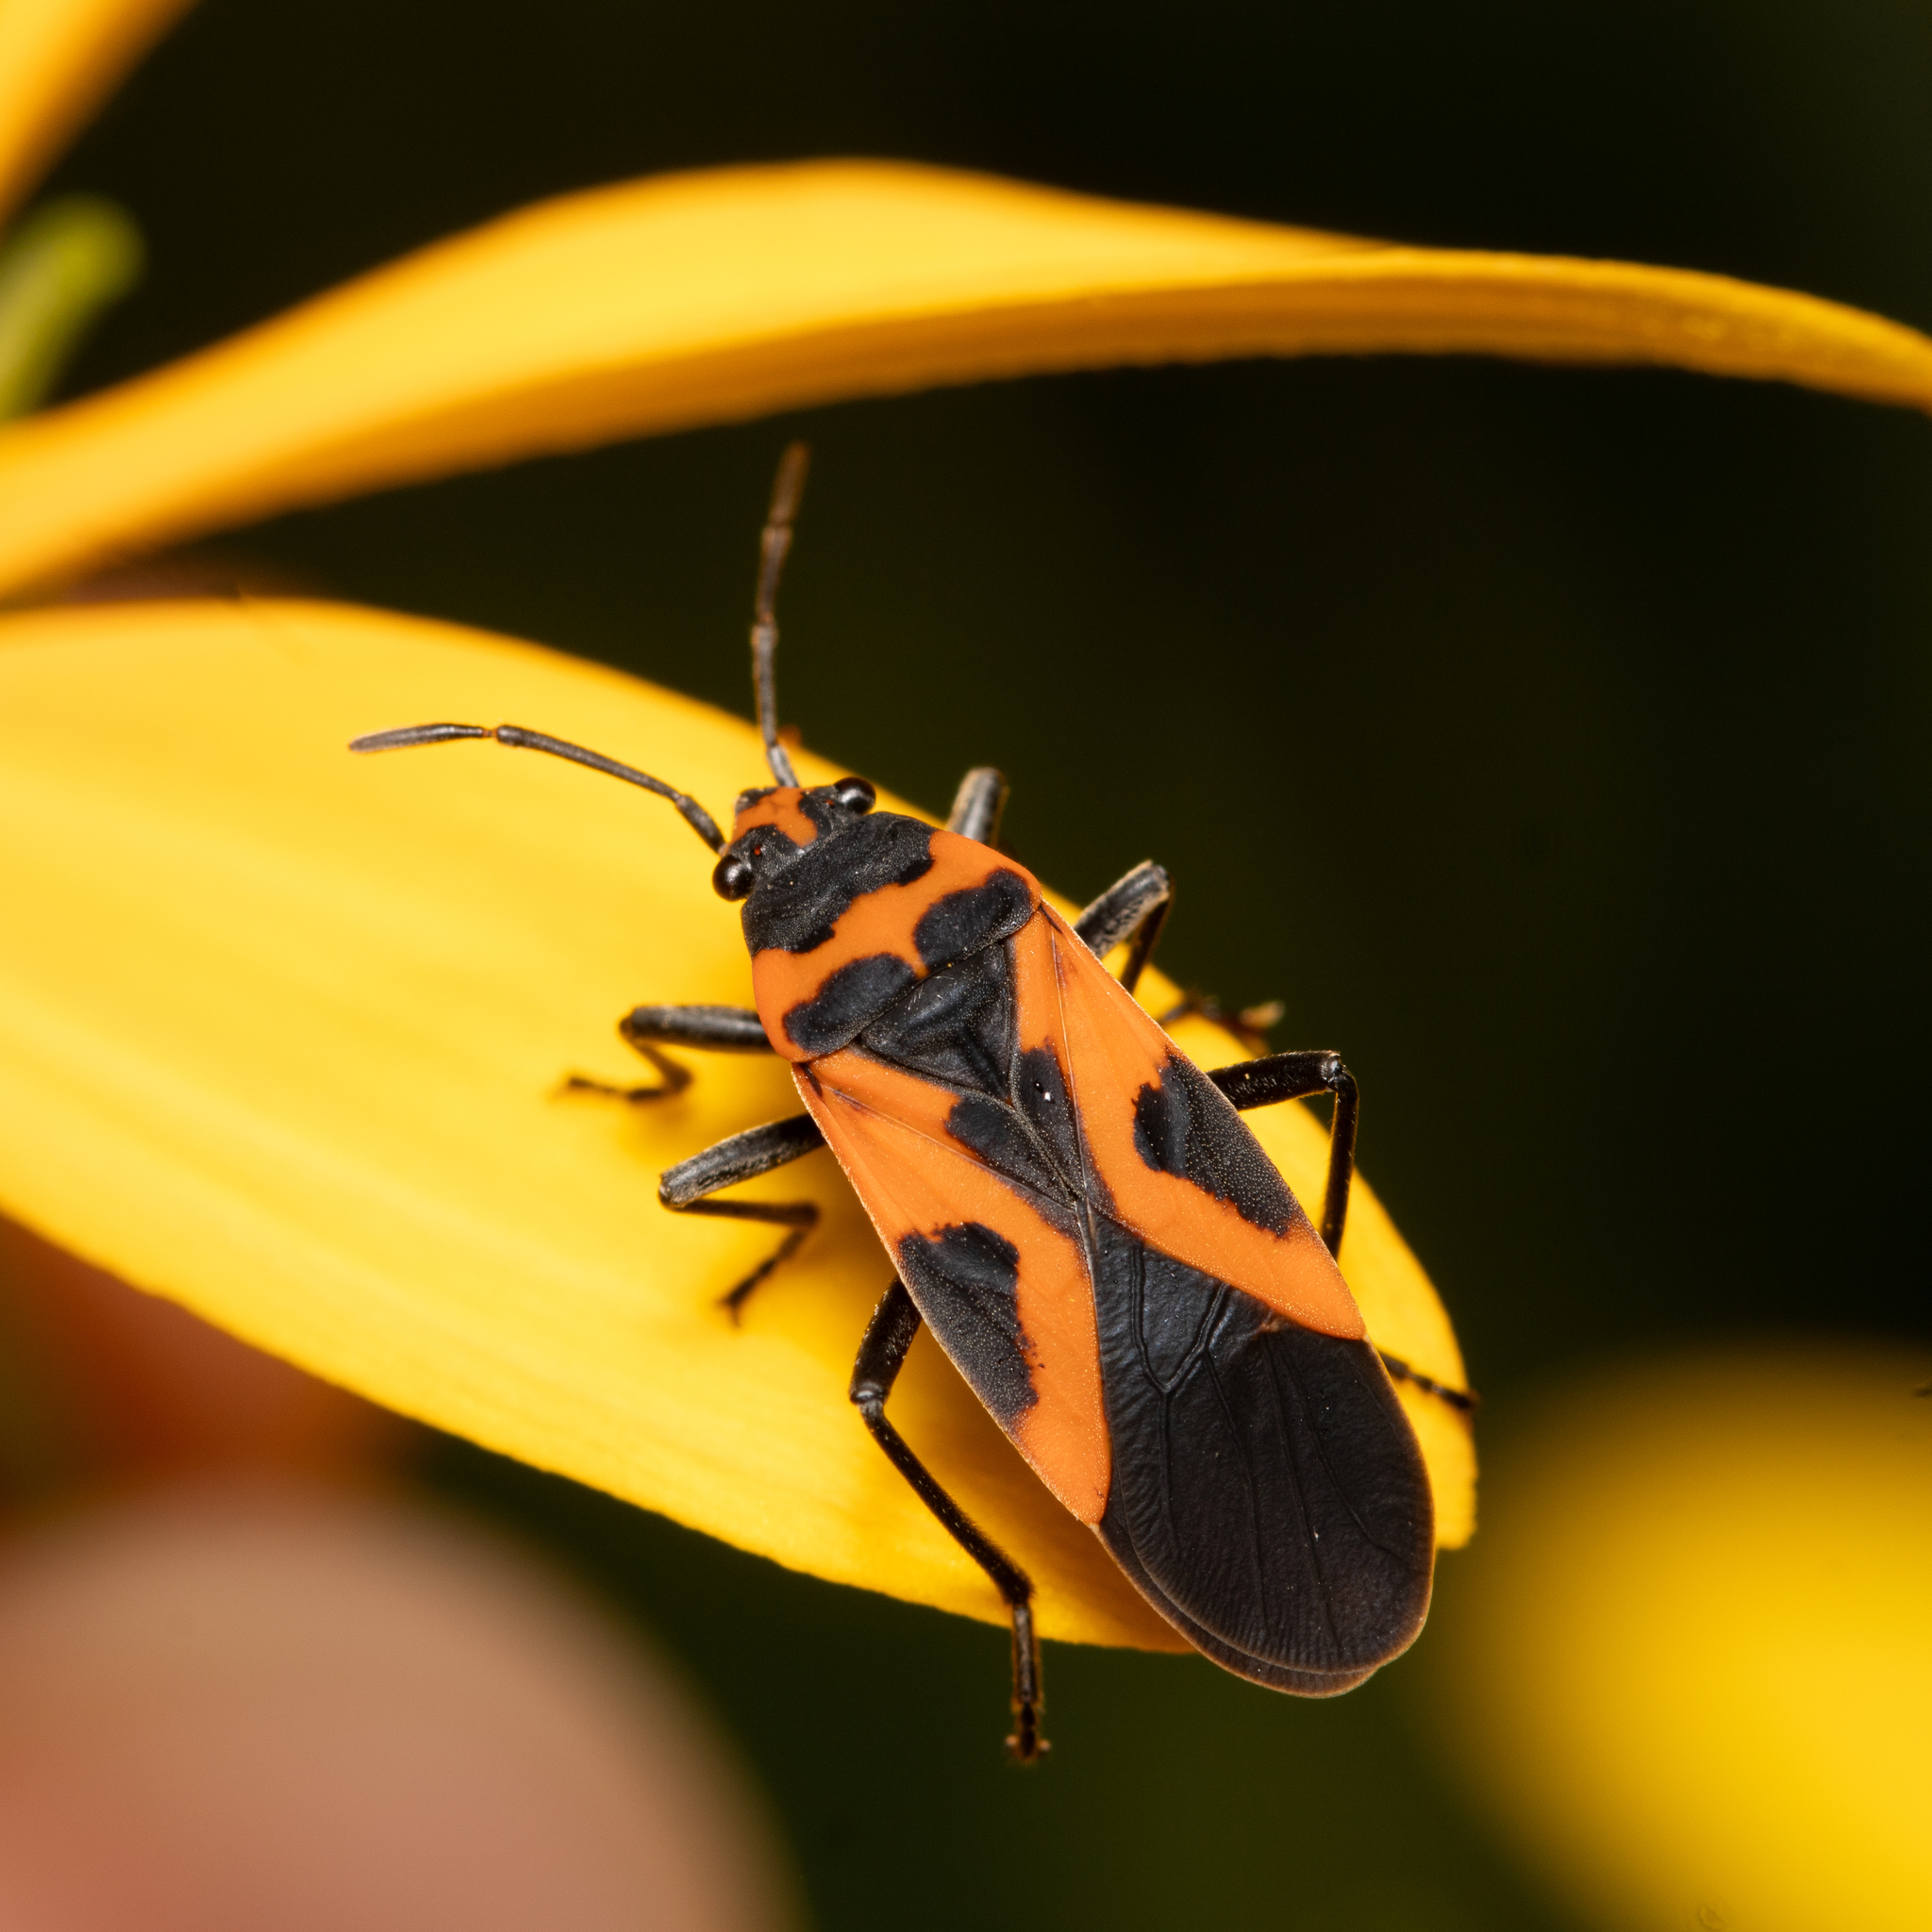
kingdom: Animalia
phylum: Arthropoda
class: Insecta
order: Hemiptera
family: Lygaeidae
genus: Lygaeus
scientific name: Lygaeus turcicus
